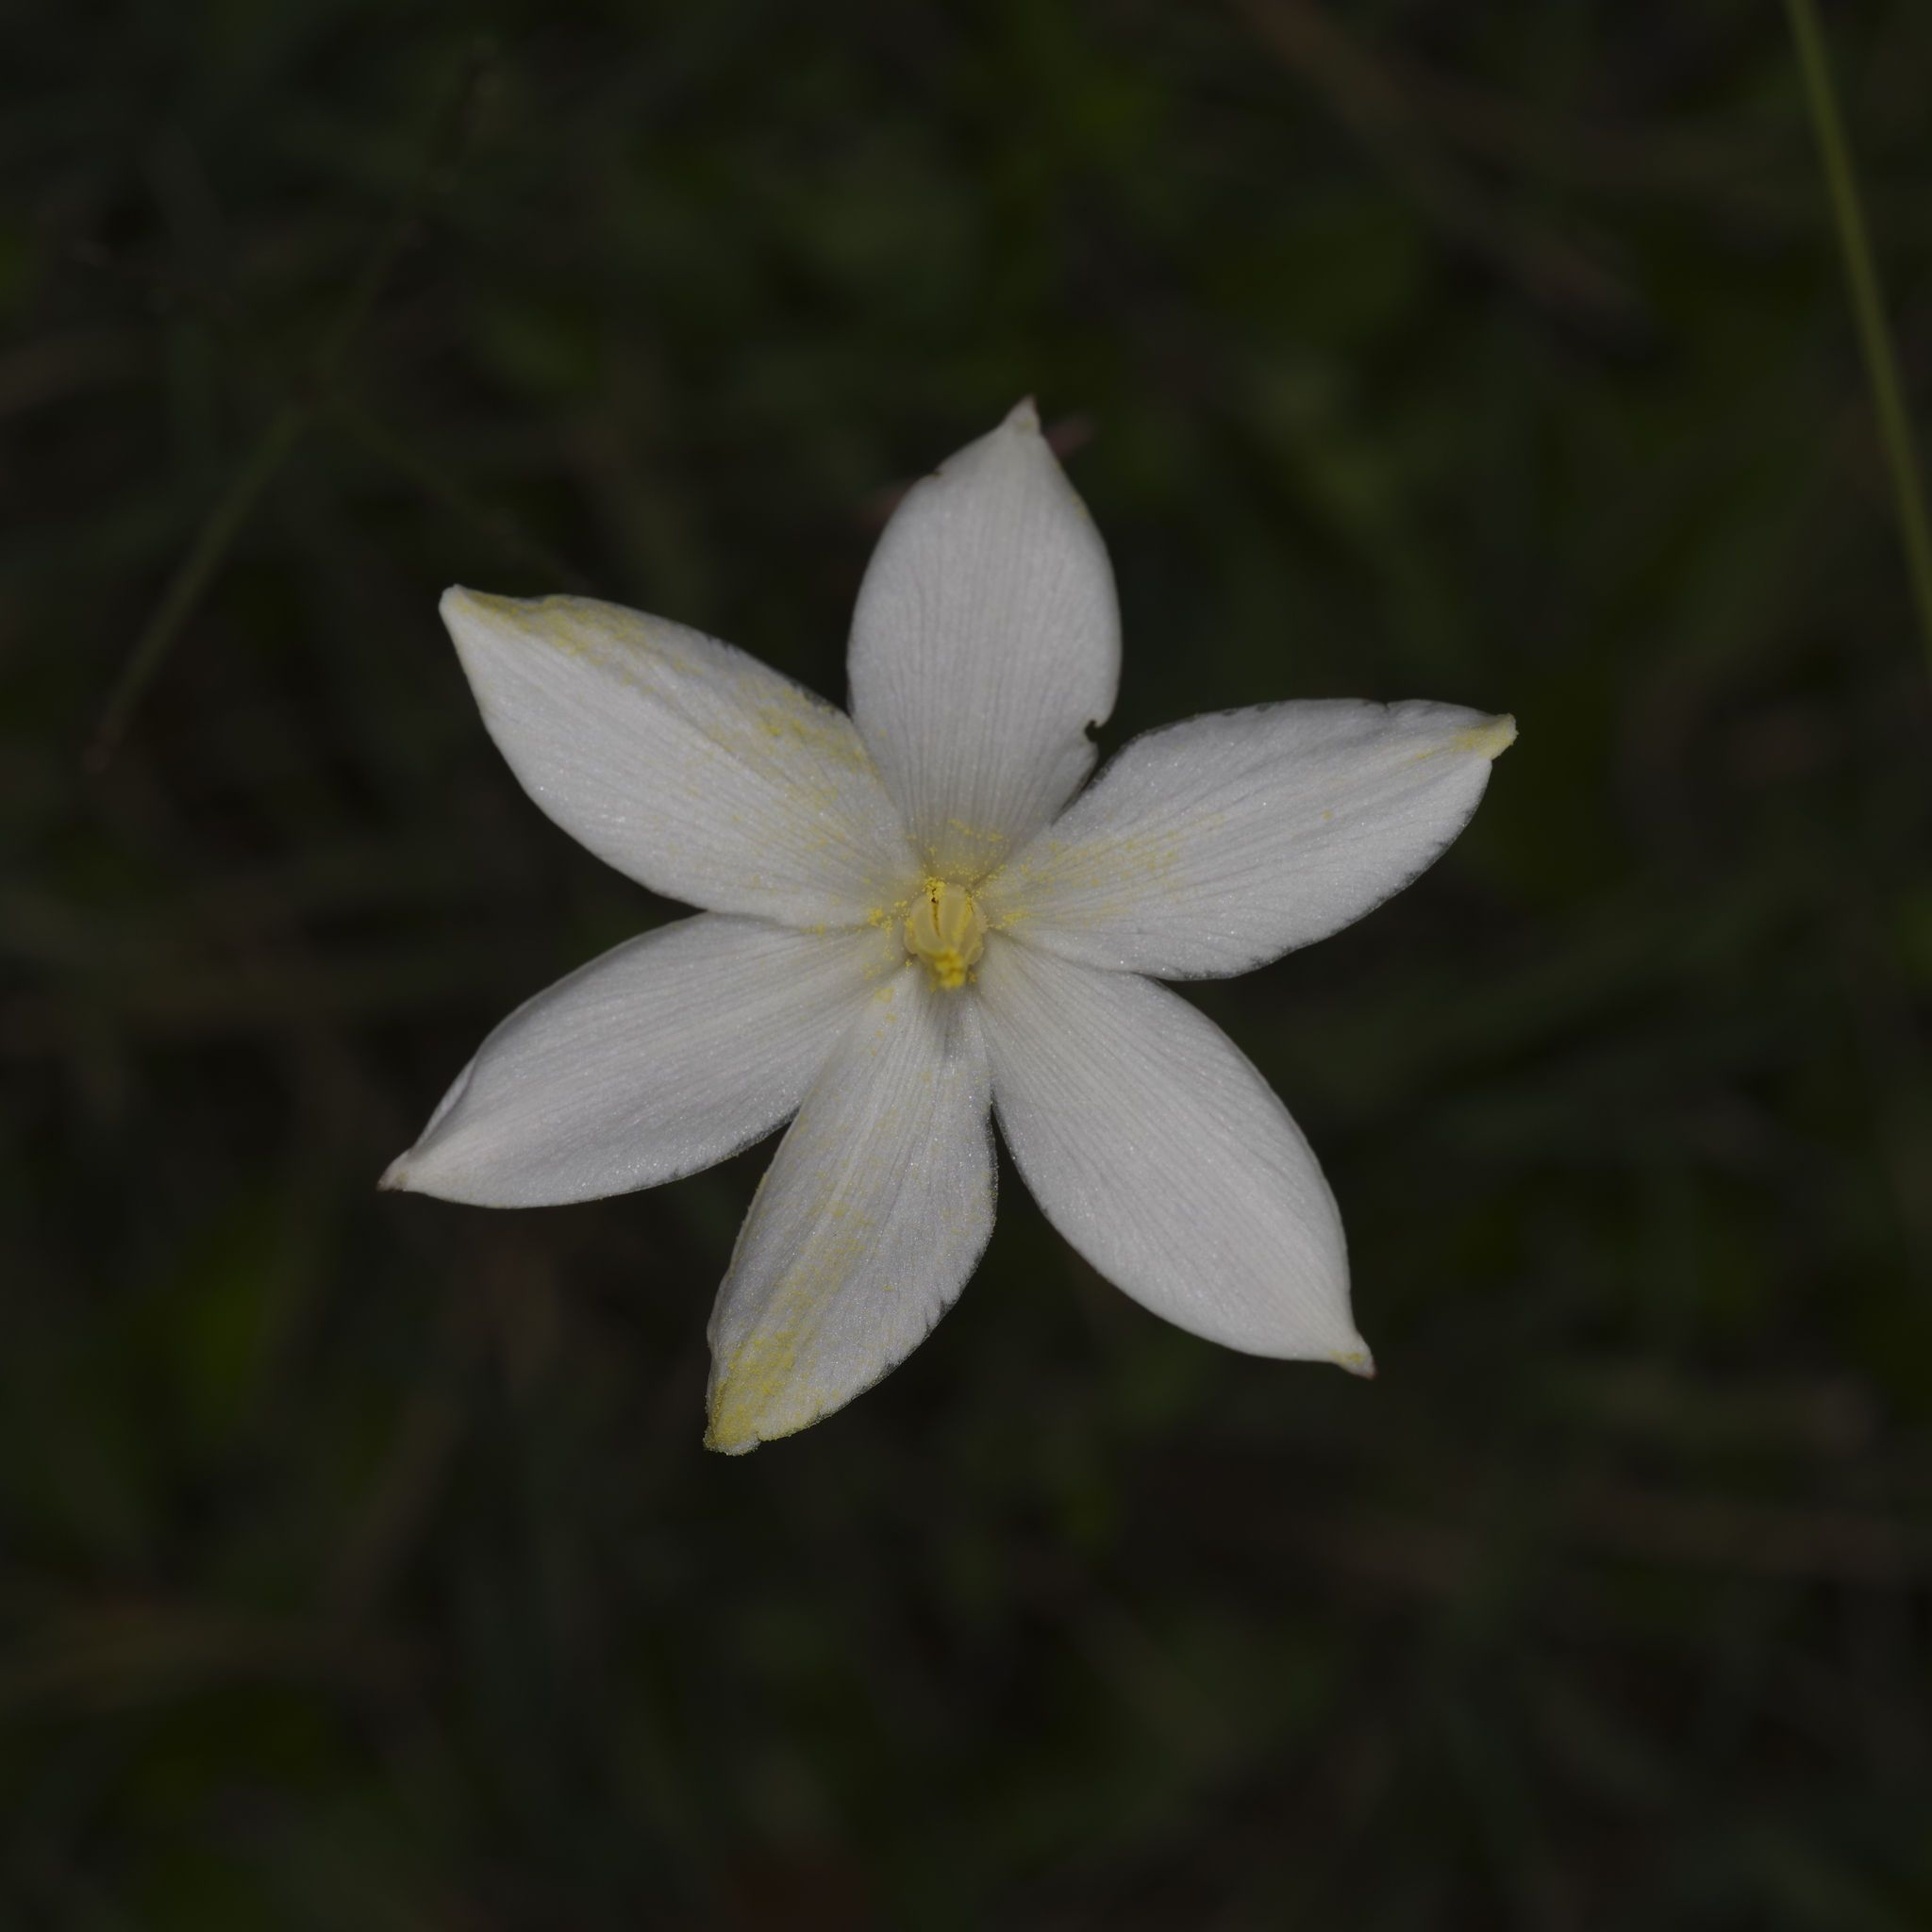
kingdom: Plantae
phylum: Tracheophyta
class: Liliopsida
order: Asparagales
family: Amaryllidaceae
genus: Zephyranthes
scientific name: Zephyranthes chlorosolen
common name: Evening rain-lily
